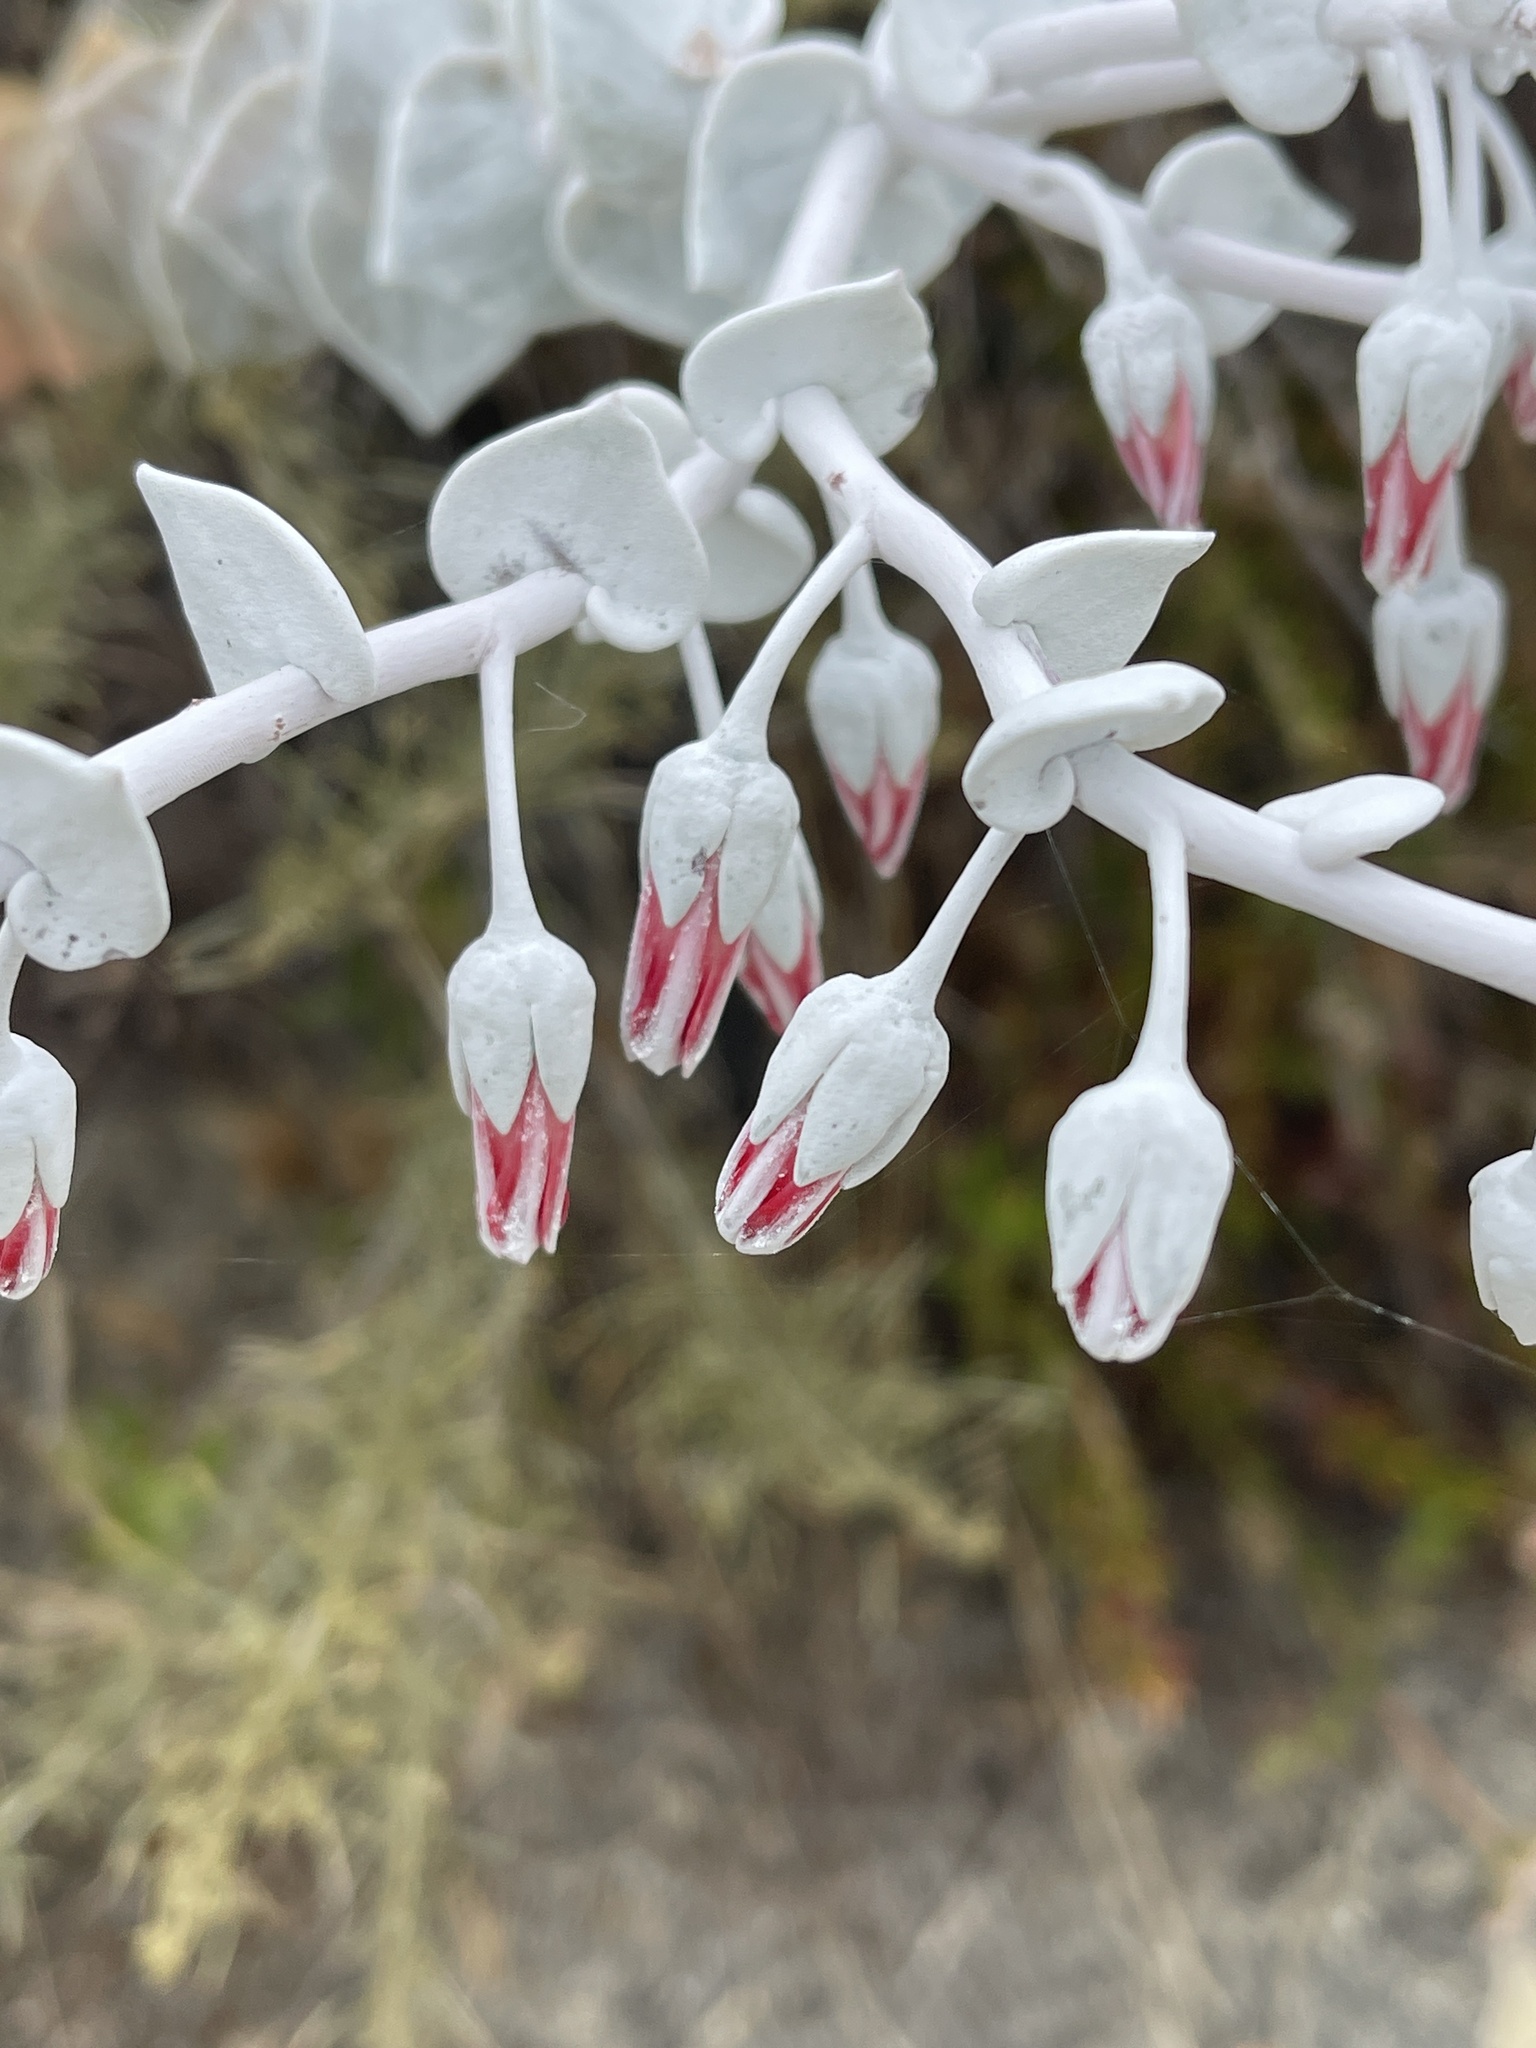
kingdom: Plantae
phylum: Tracheophyta
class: Magnoliopsida
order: Saxifragales
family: Crassulaceae
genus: Dudleya
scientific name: Dudleya pulverulenta
